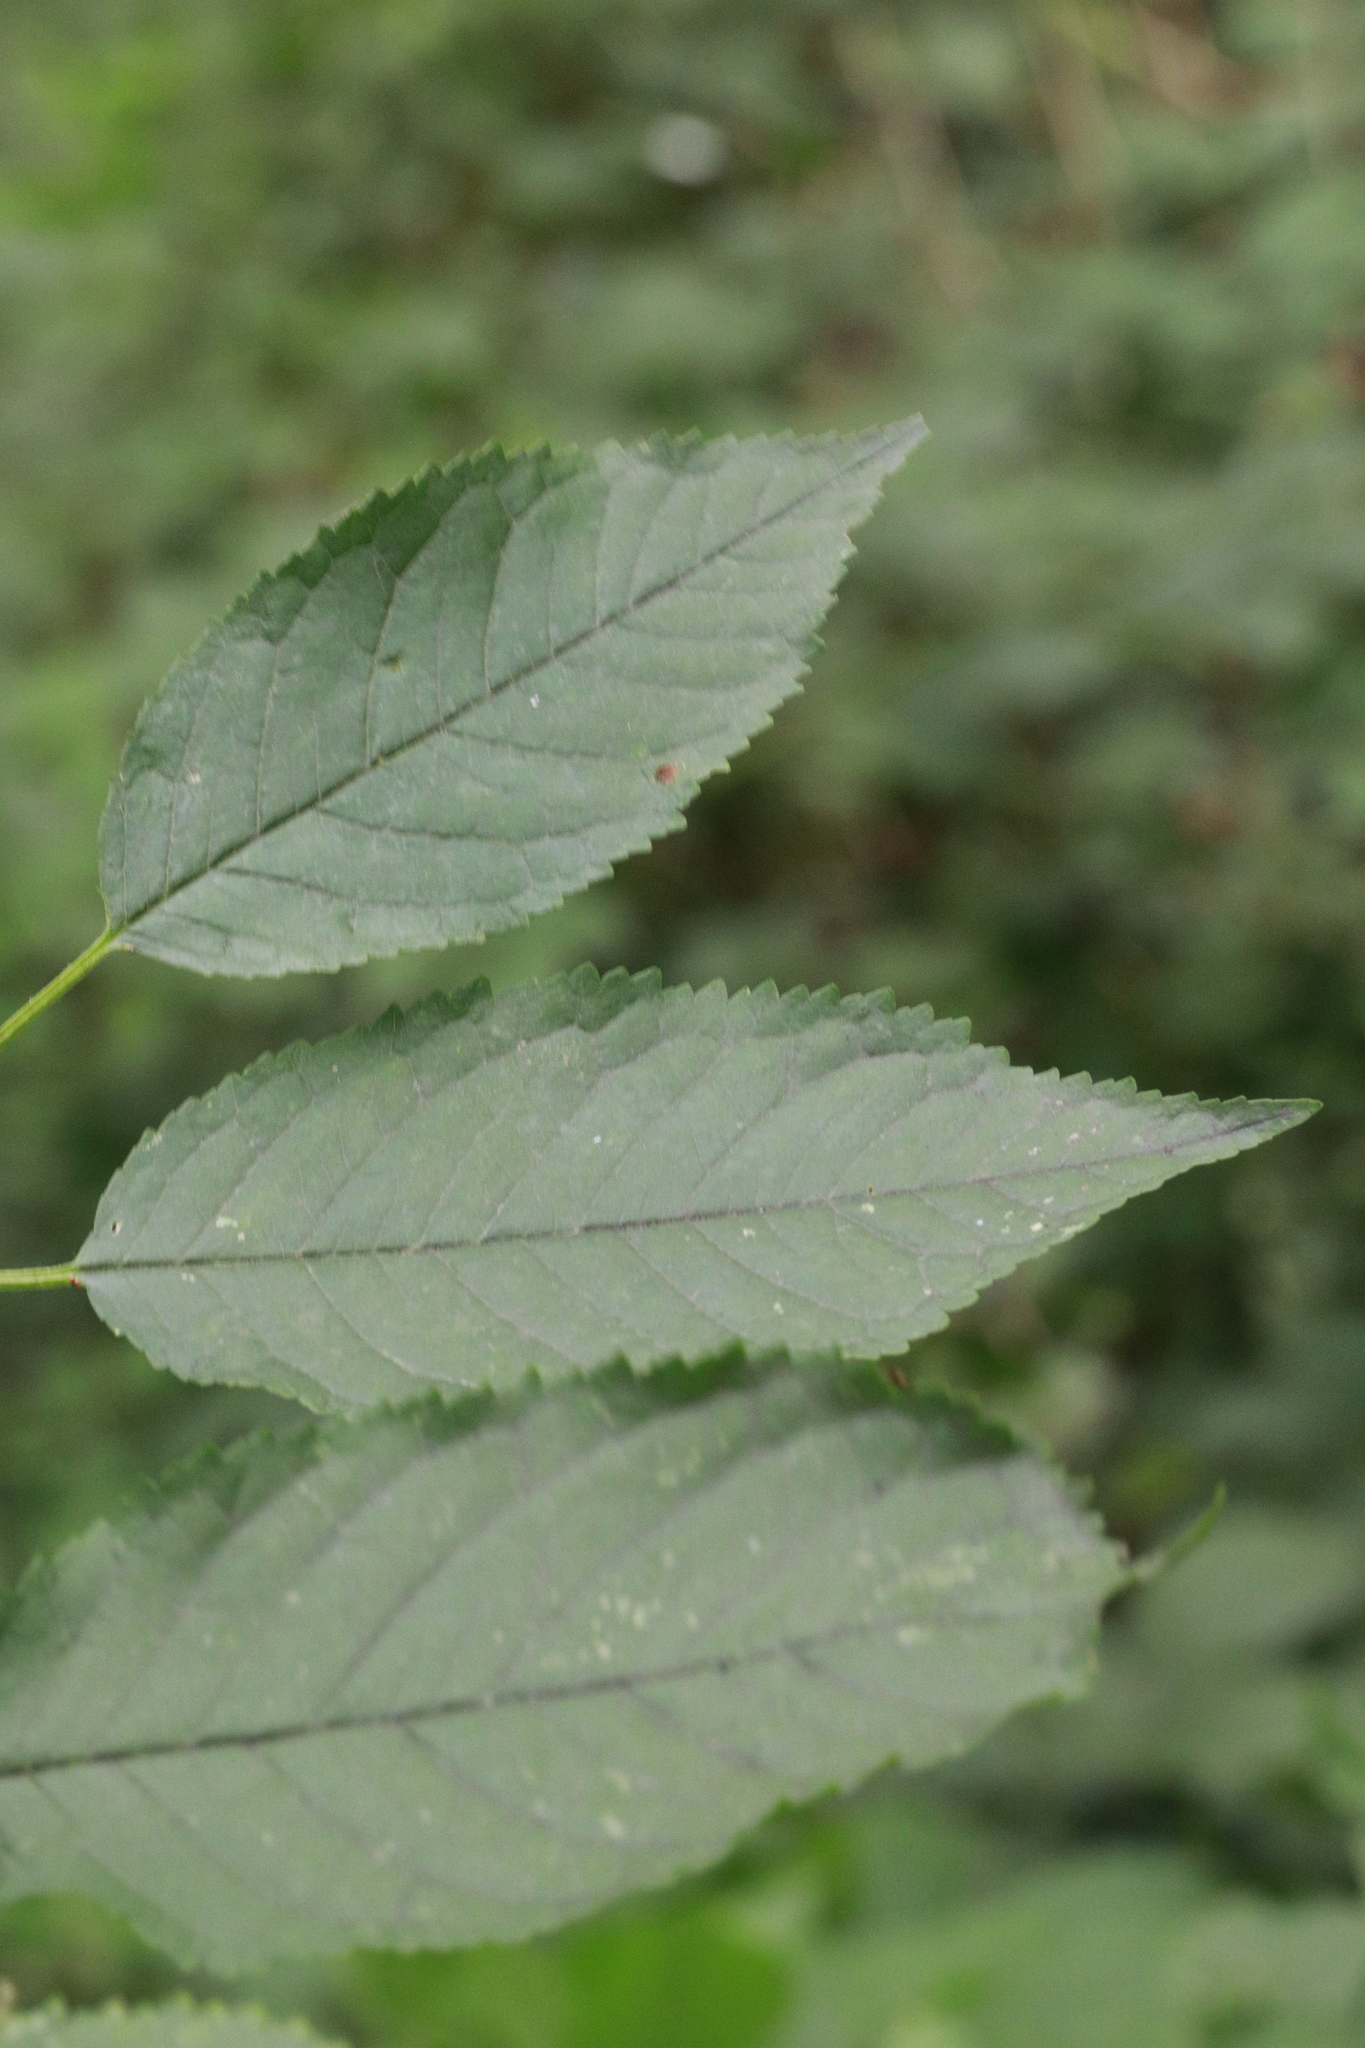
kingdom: Plantae
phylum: Tracheophyta
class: Magnoliopsida
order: Rosales
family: Rosaceae
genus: Prunus
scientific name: Prunus avium
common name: Sweet cherry
